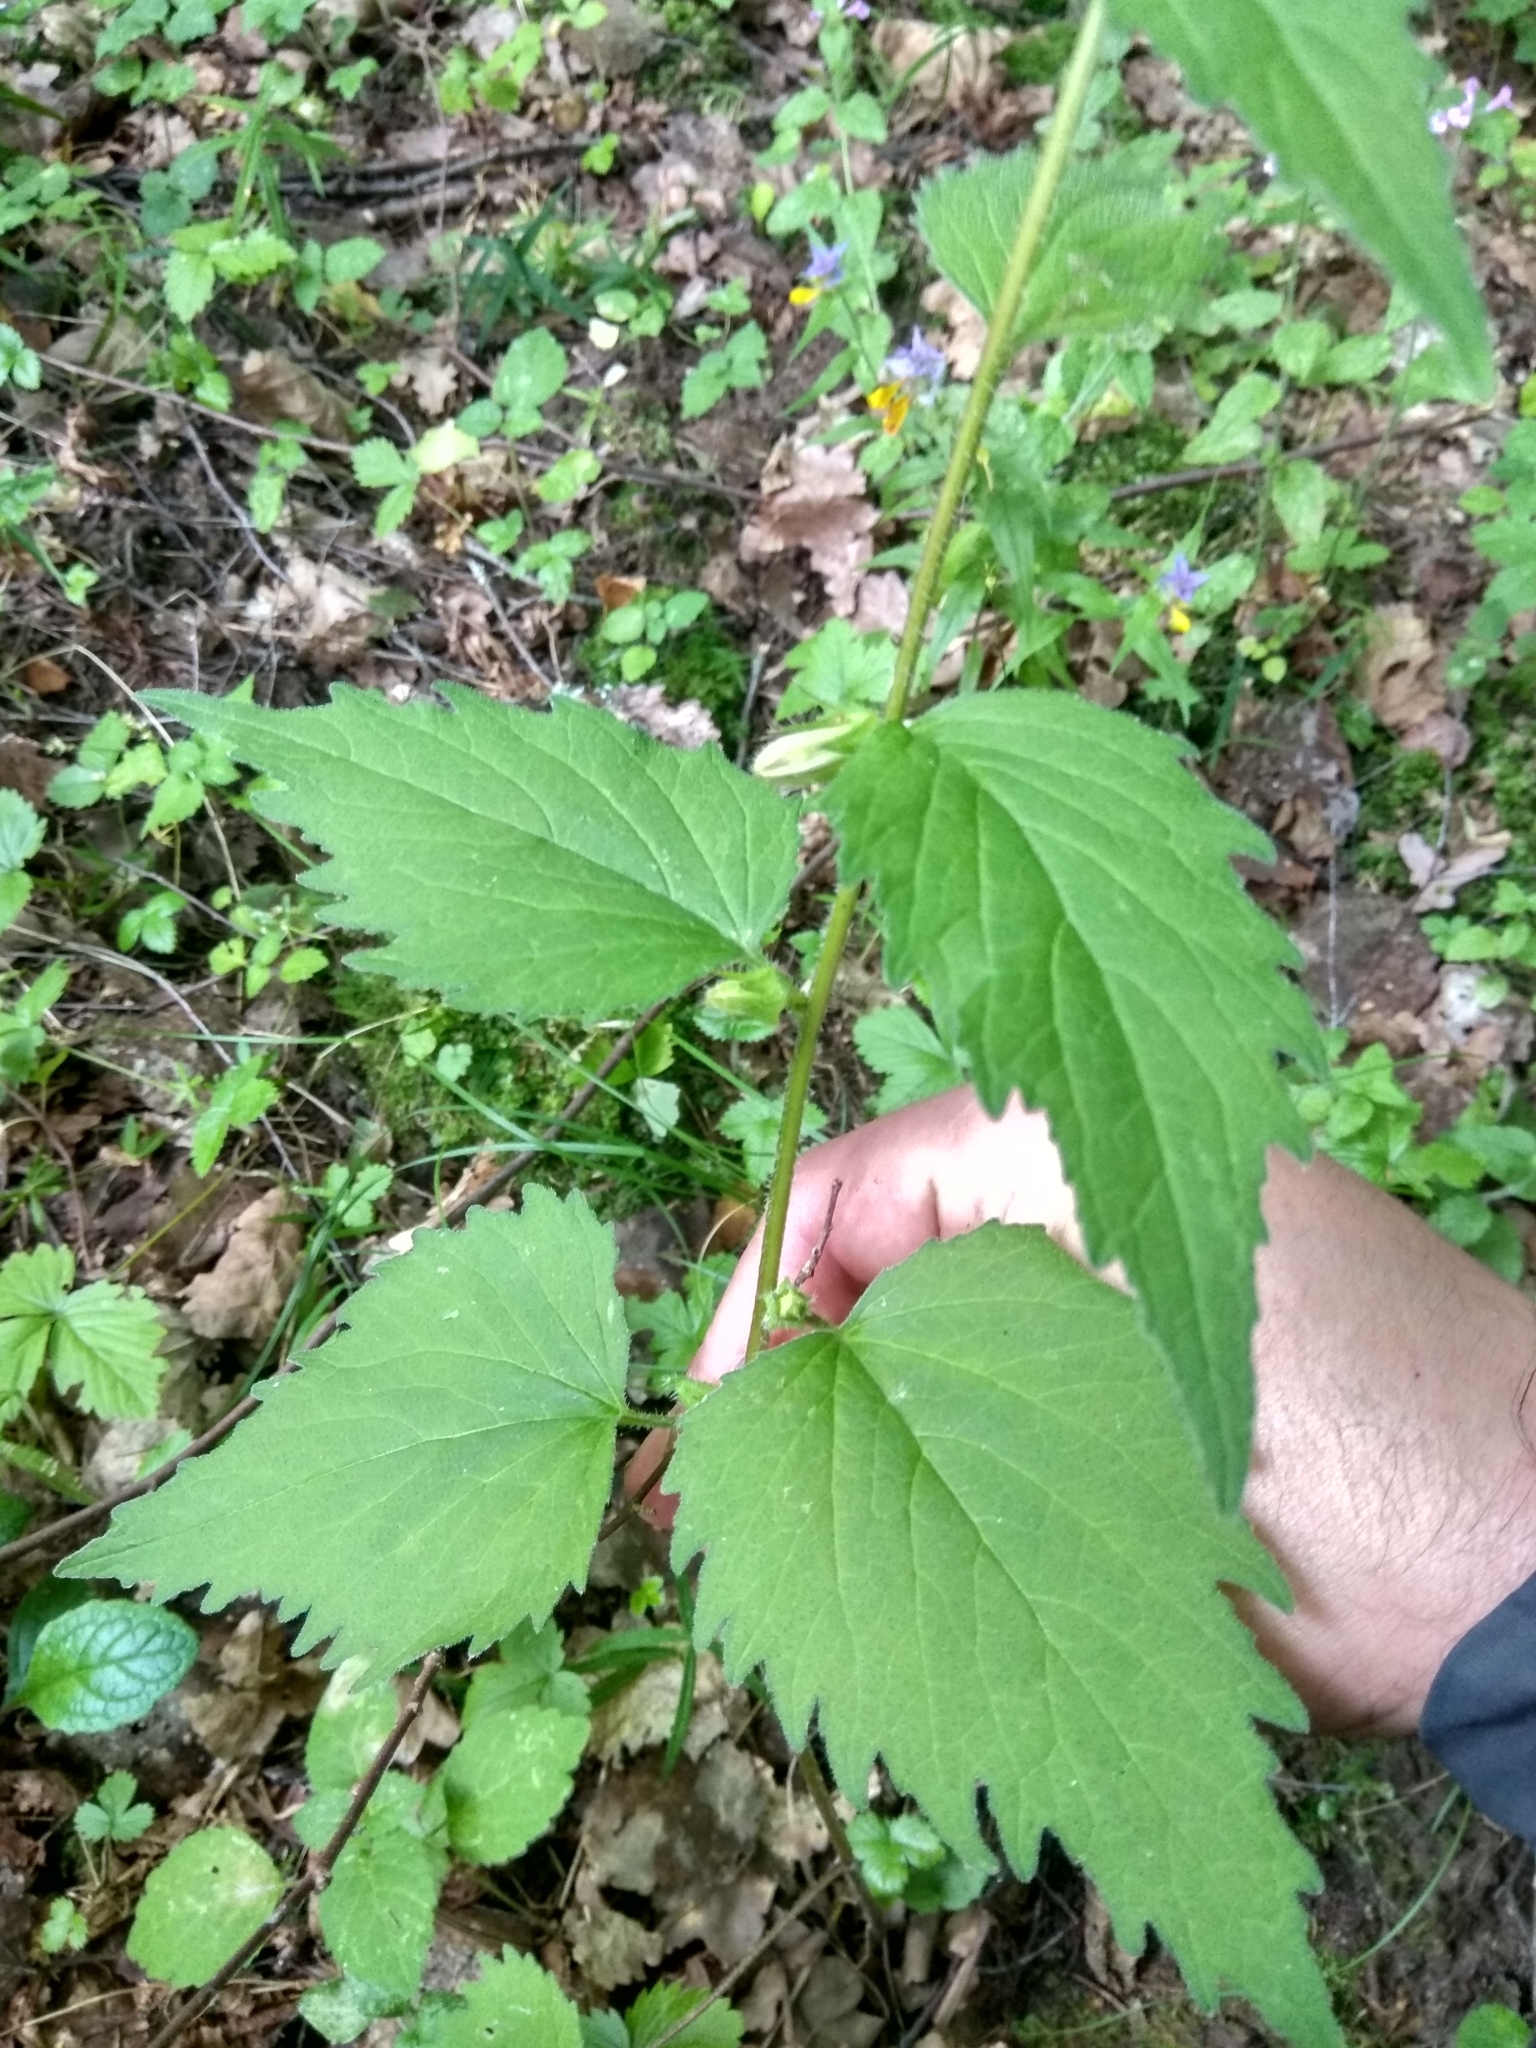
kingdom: Plantae
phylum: Tracheophyta
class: Magnoliopsida
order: Asterales
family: Campanulaceae
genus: Campanula
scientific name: Campanula trachelium
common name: Nettle-leaved bellflower
